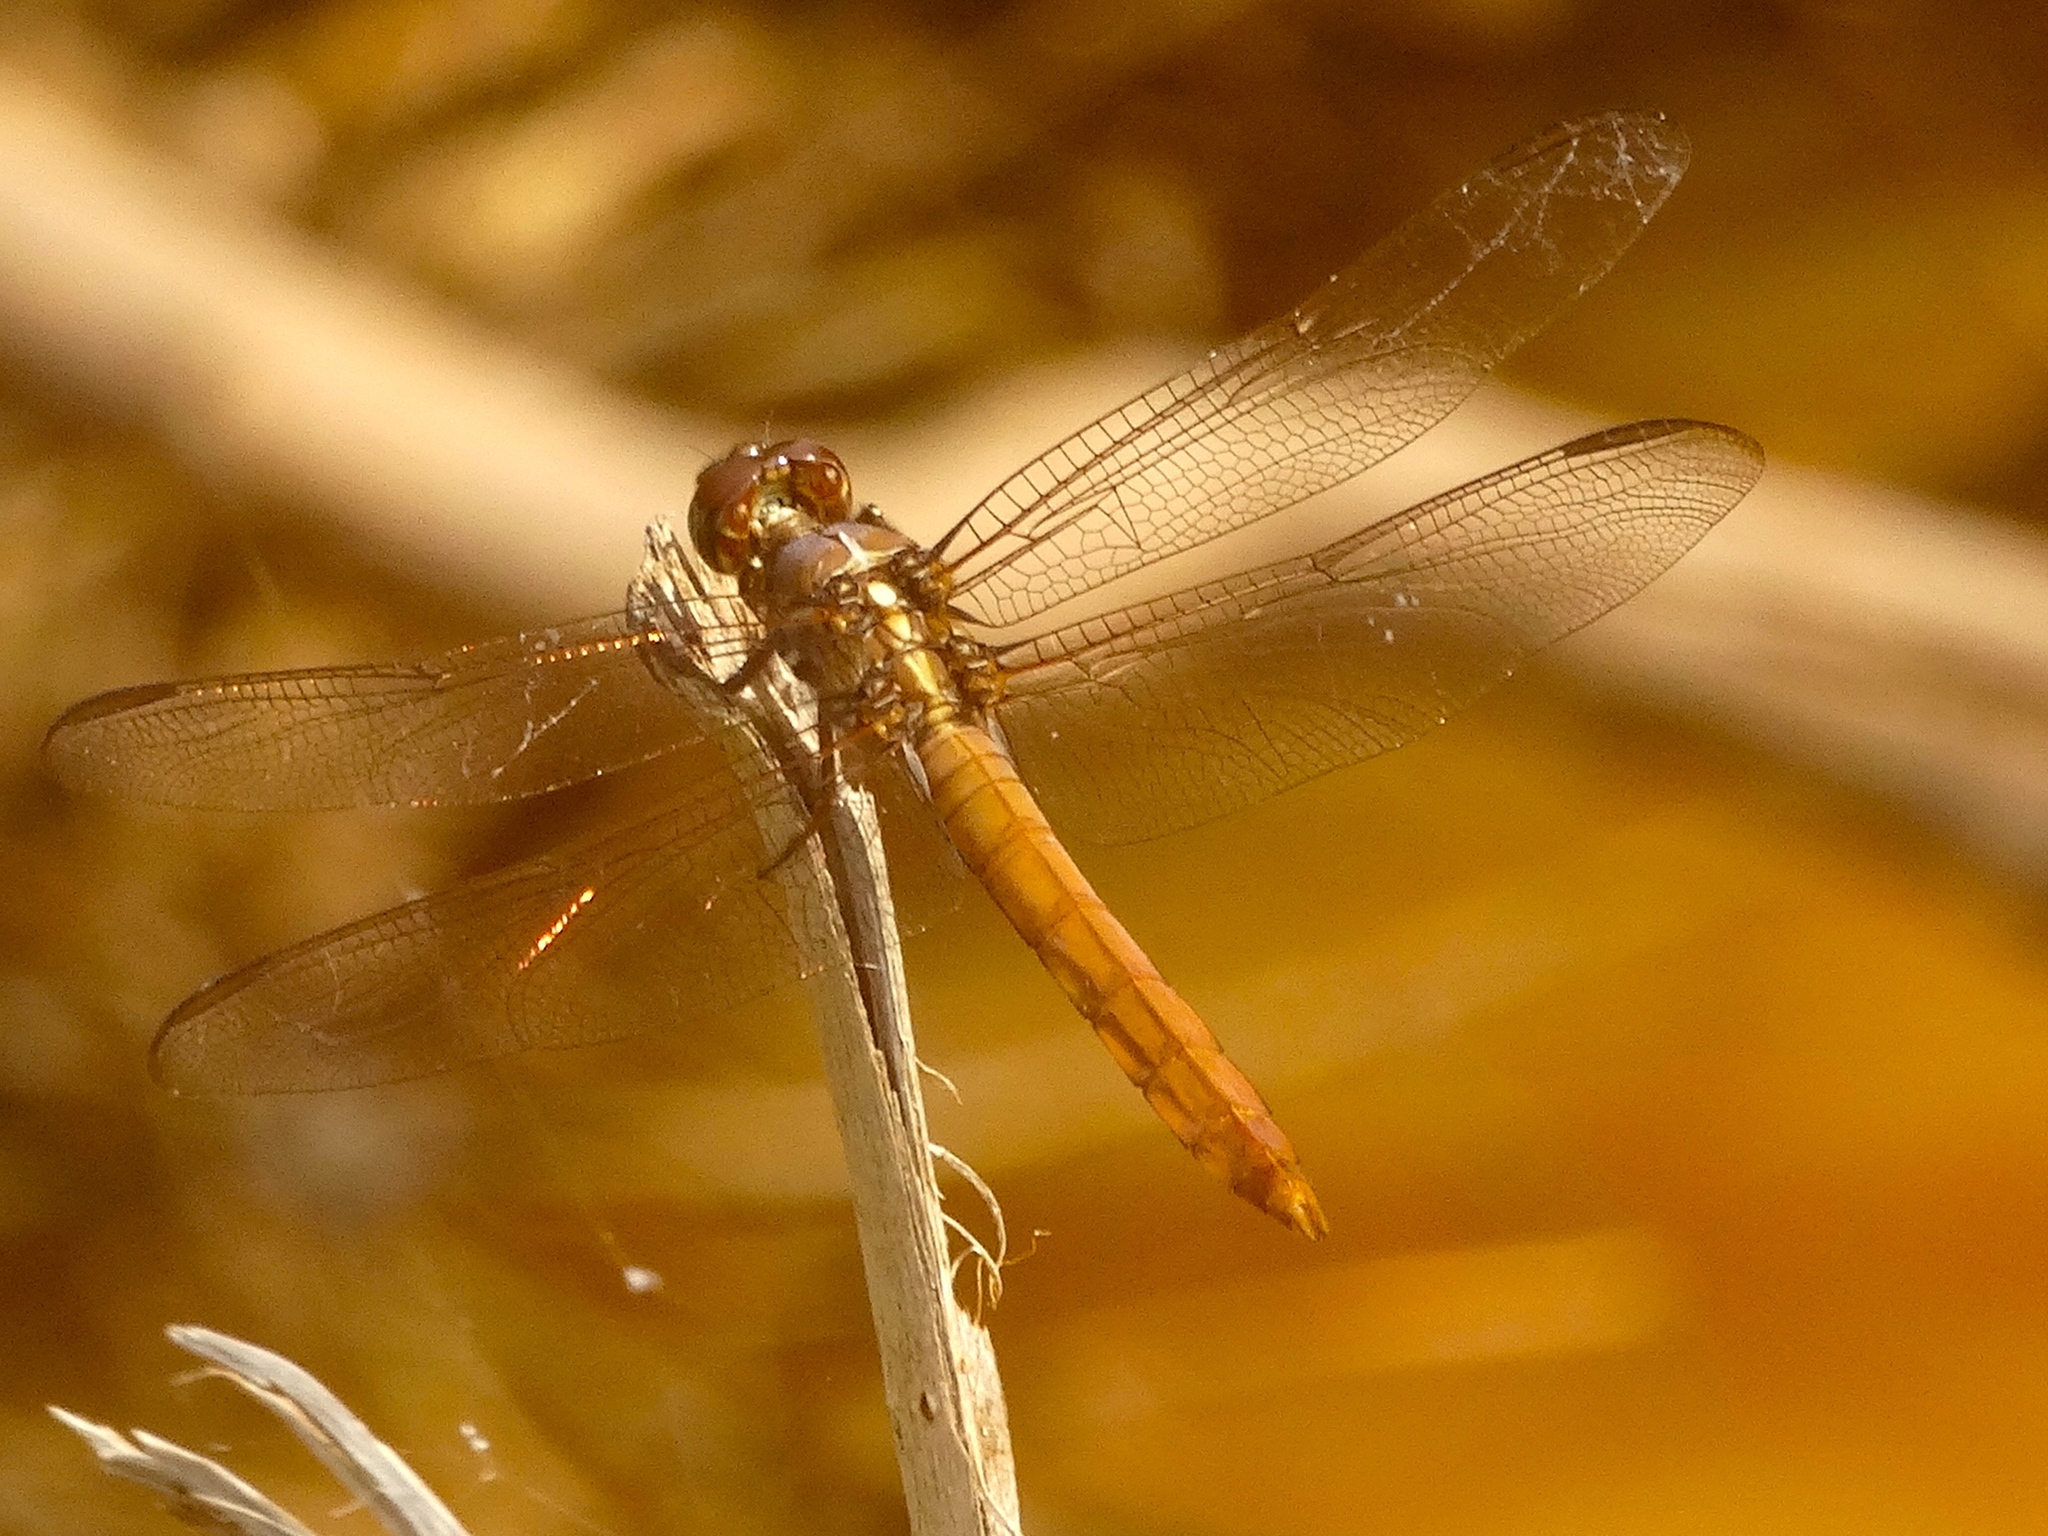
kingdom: Animalia
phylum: Arthropoda
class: Insecta
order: Odonata
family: Libellulidae
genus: Orthemis
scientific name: Orthemis
